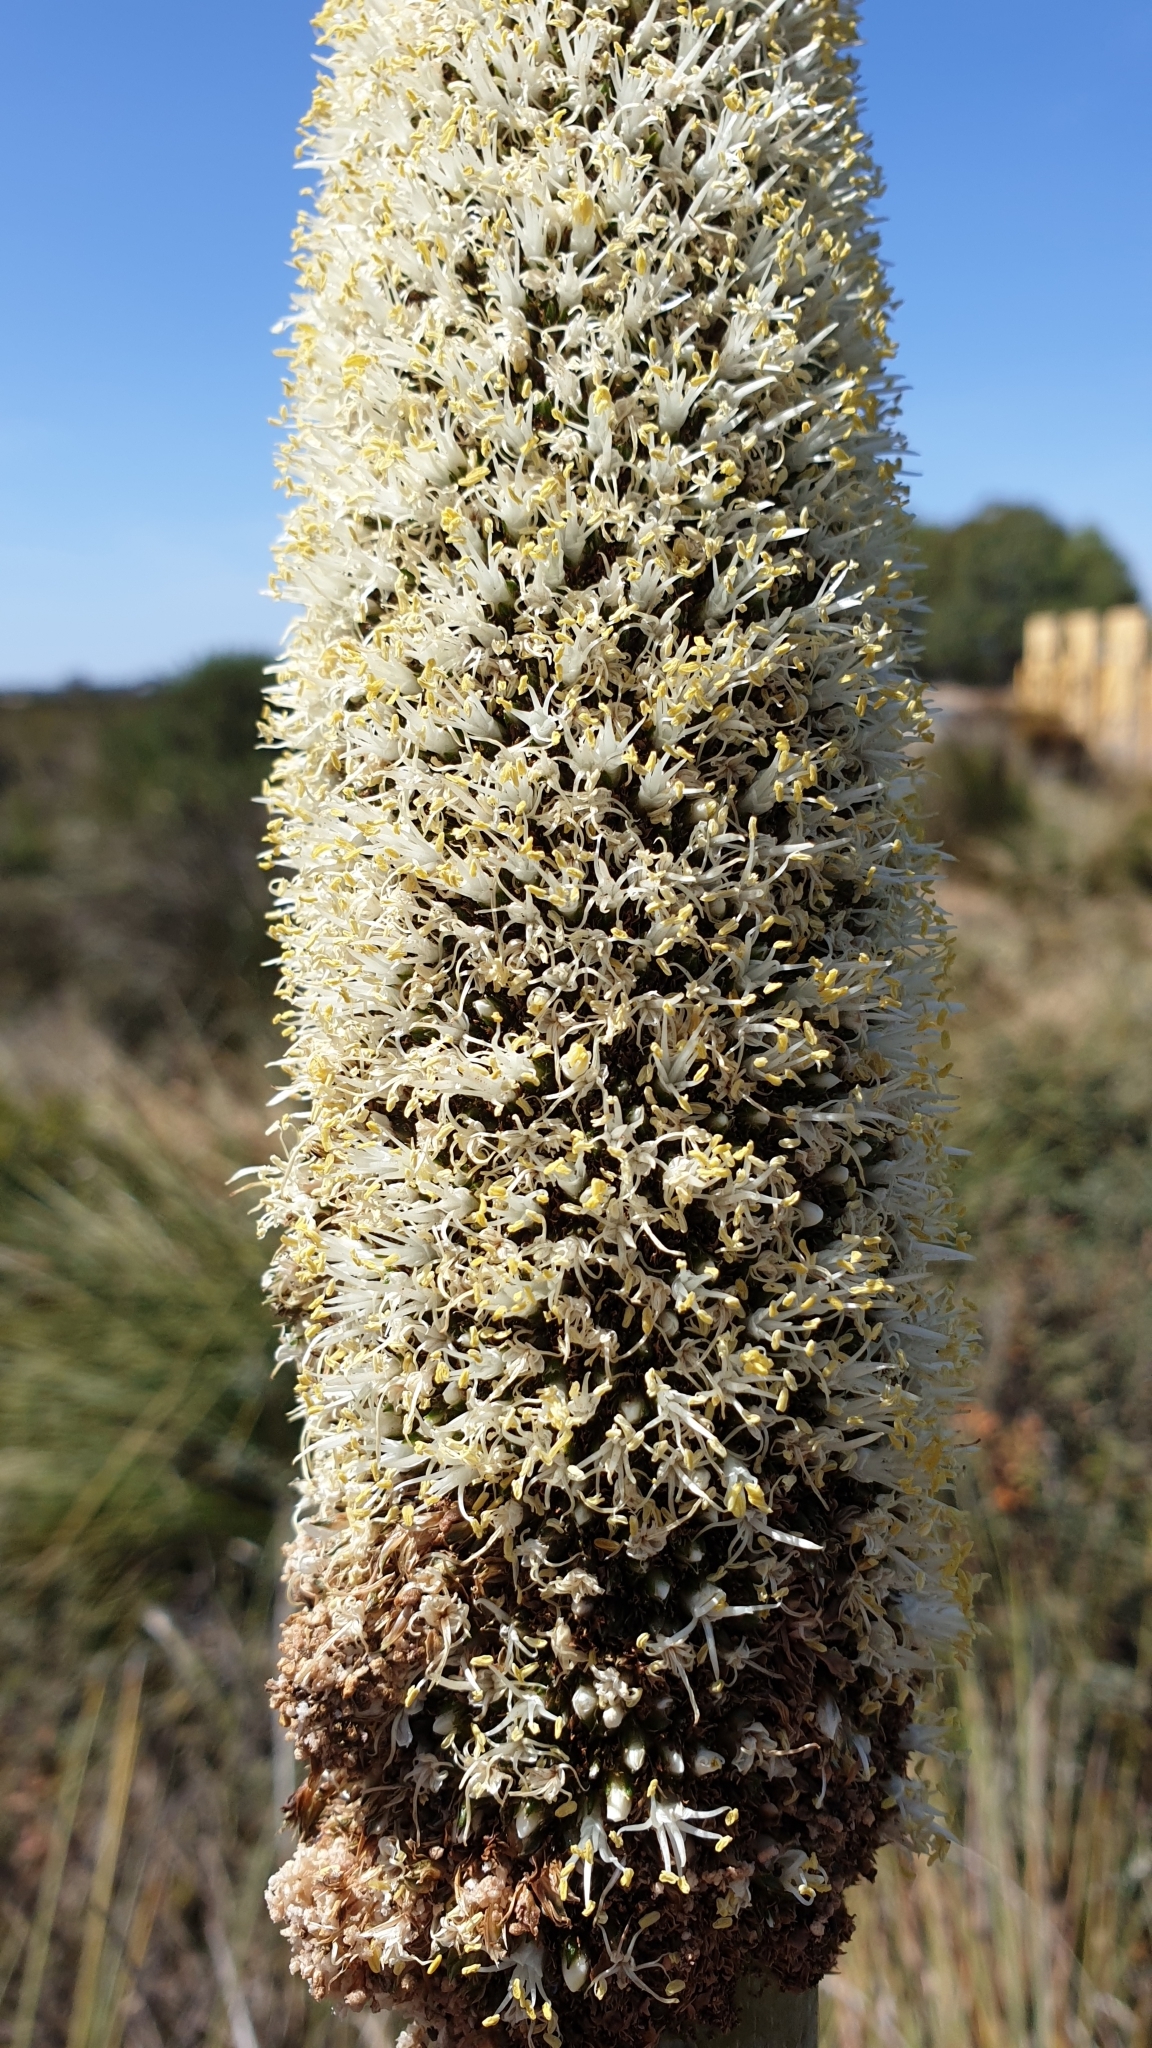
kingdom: Plantae
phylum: Tracheophyta
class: Liliopsida
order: Asparagales
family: Asphodelaceae
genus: Xanthorrhoea
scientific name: Xanthorrhoea caespitosa
